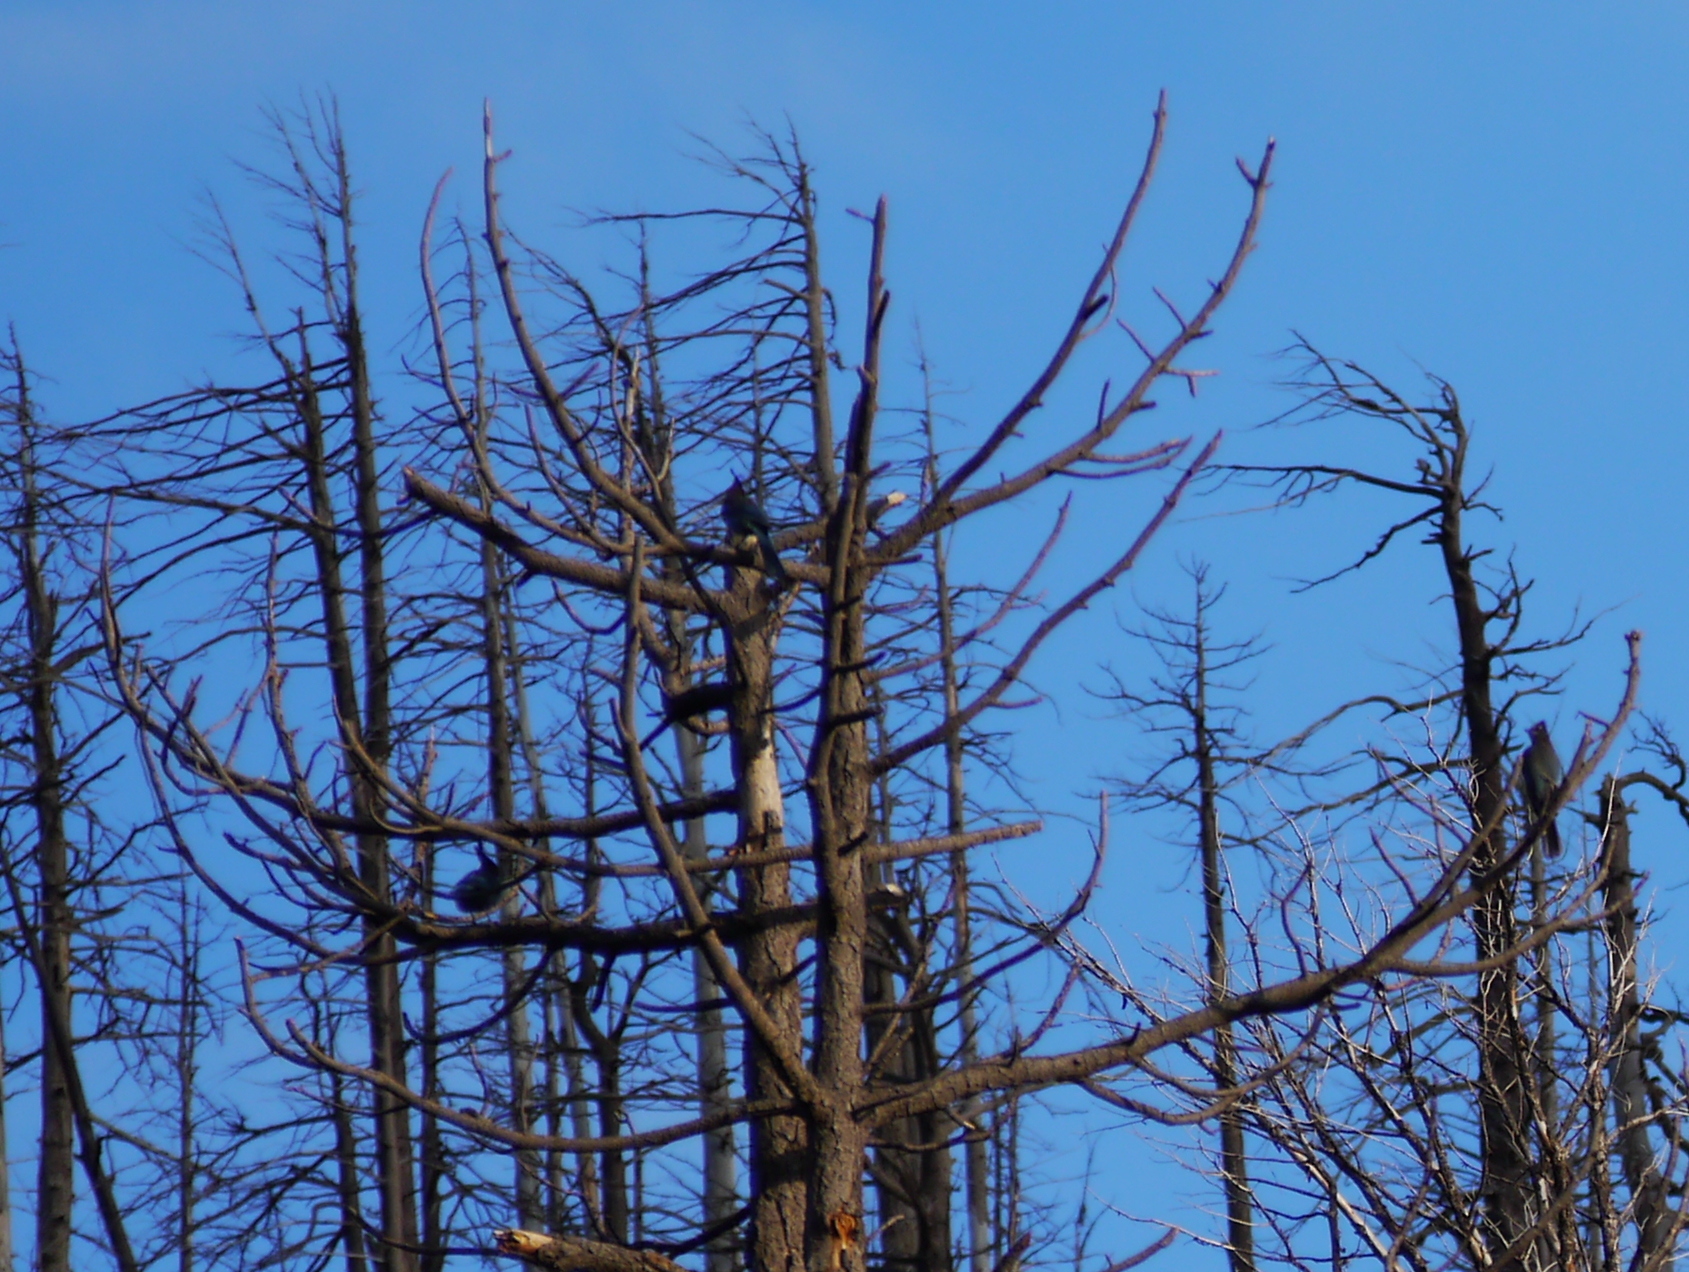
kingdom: Animalia
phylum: Chordata
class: Aves
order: Passeriformes
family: Corvidae
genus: Cyanocitta
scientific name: Cyanocitta stelleri
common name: Steller's jay
